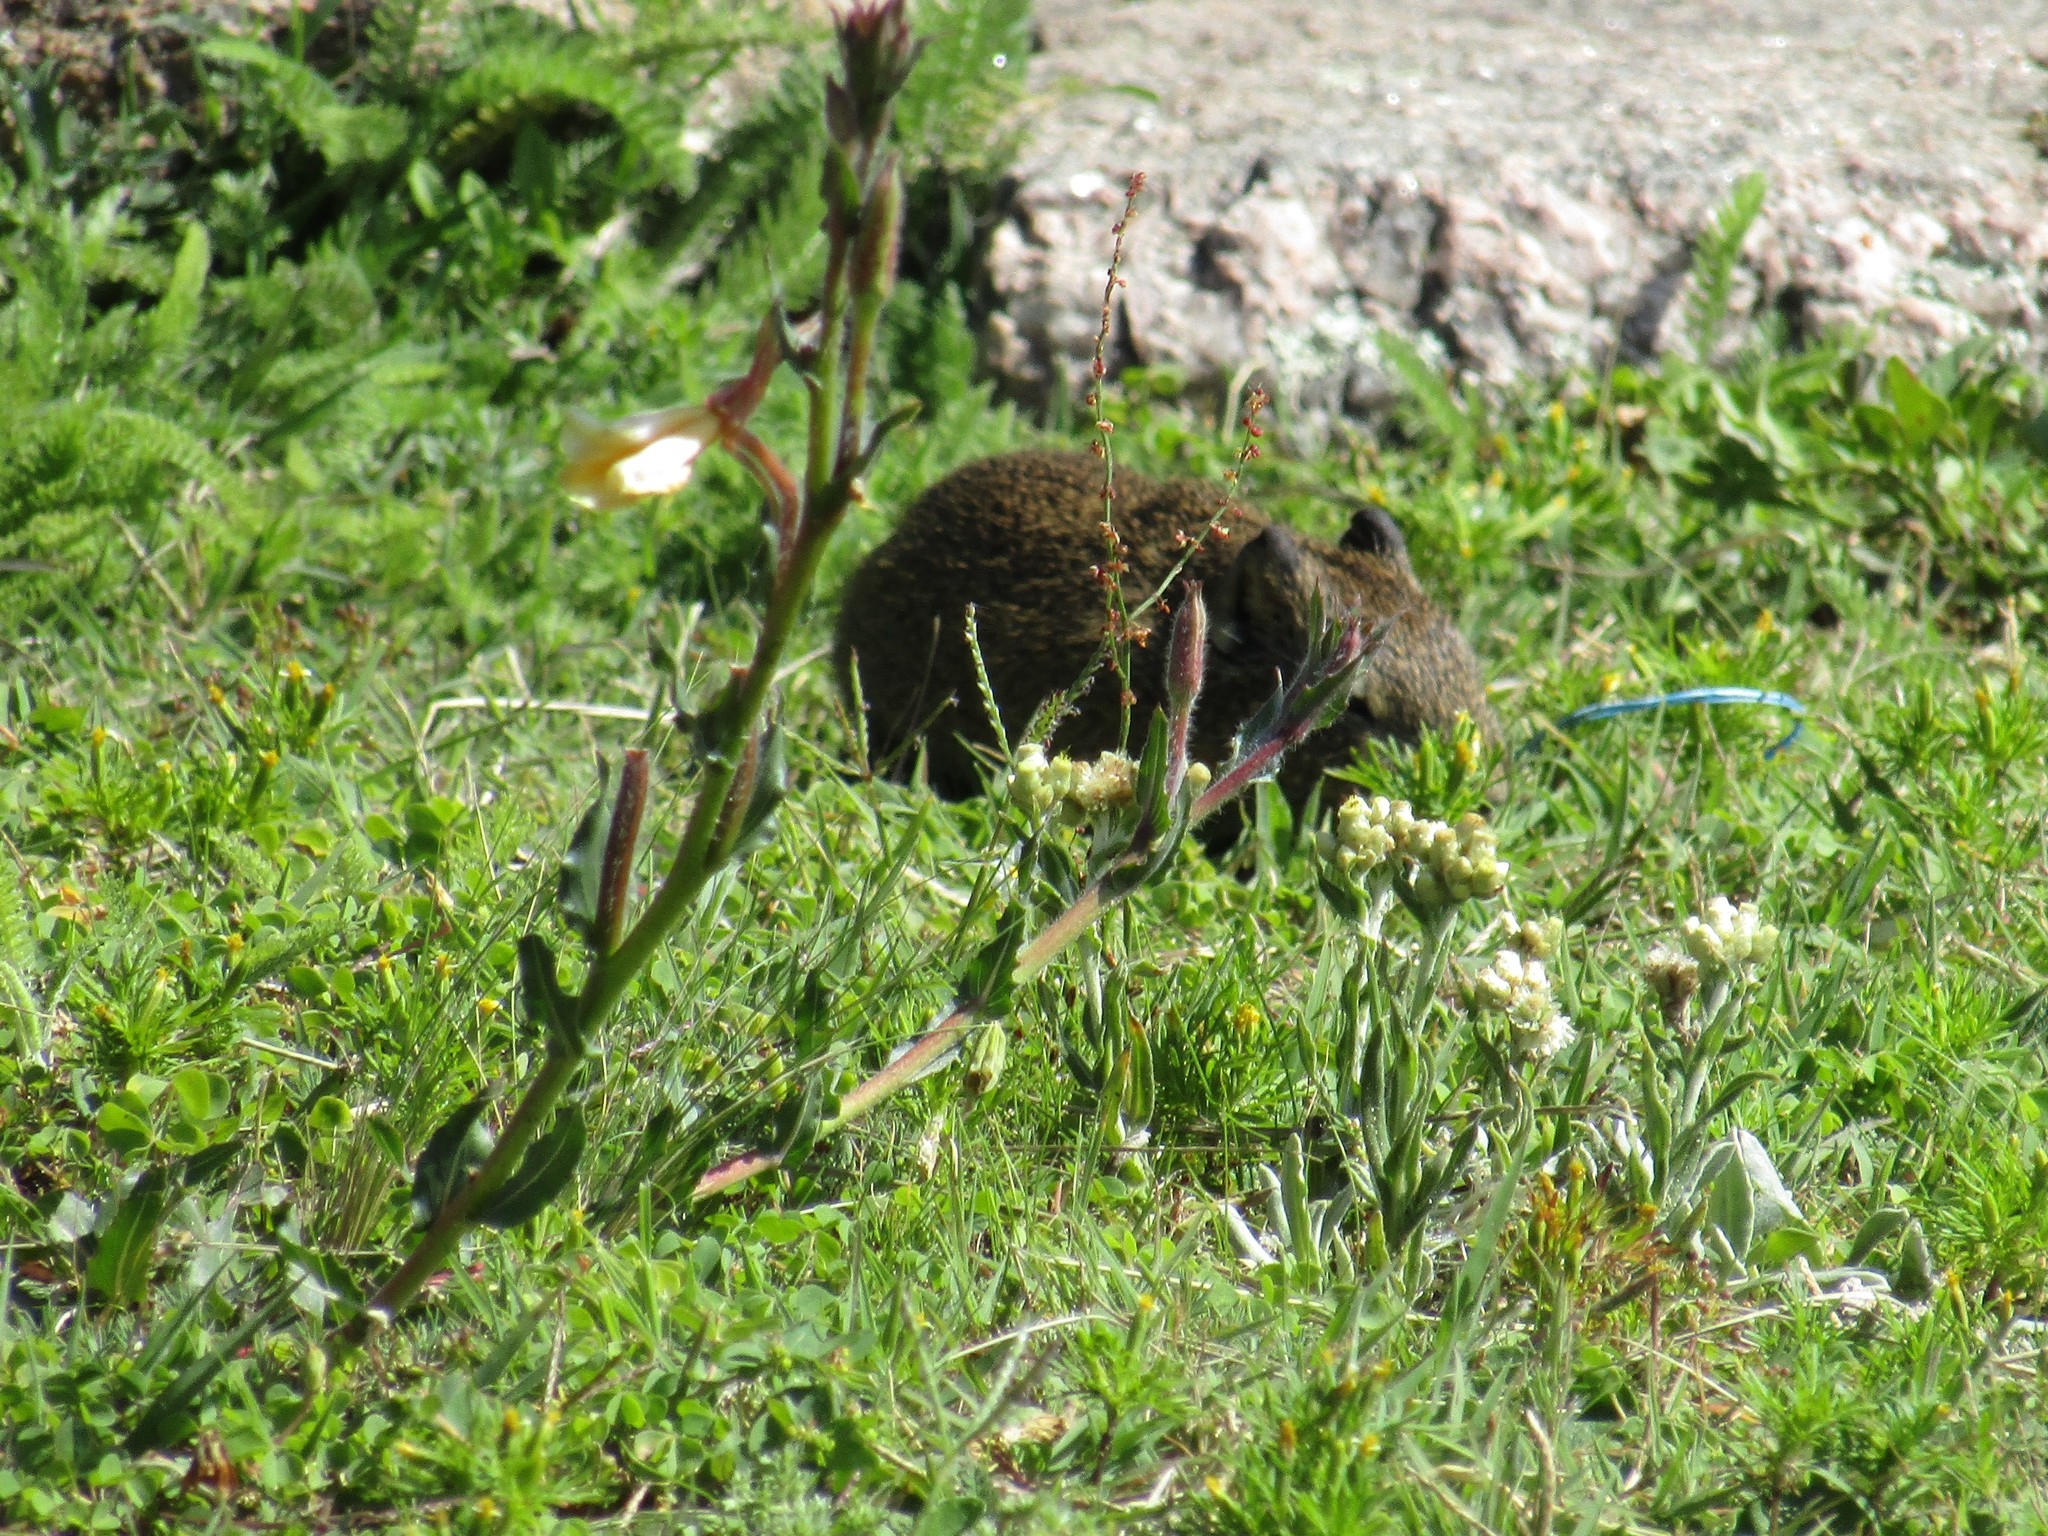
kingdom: Animalia
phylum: Chordata
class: Mammalia
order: Rodentia
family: Caviidae
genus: Cavia
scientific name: Cavia aperea
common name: Brazilian guinea pig
